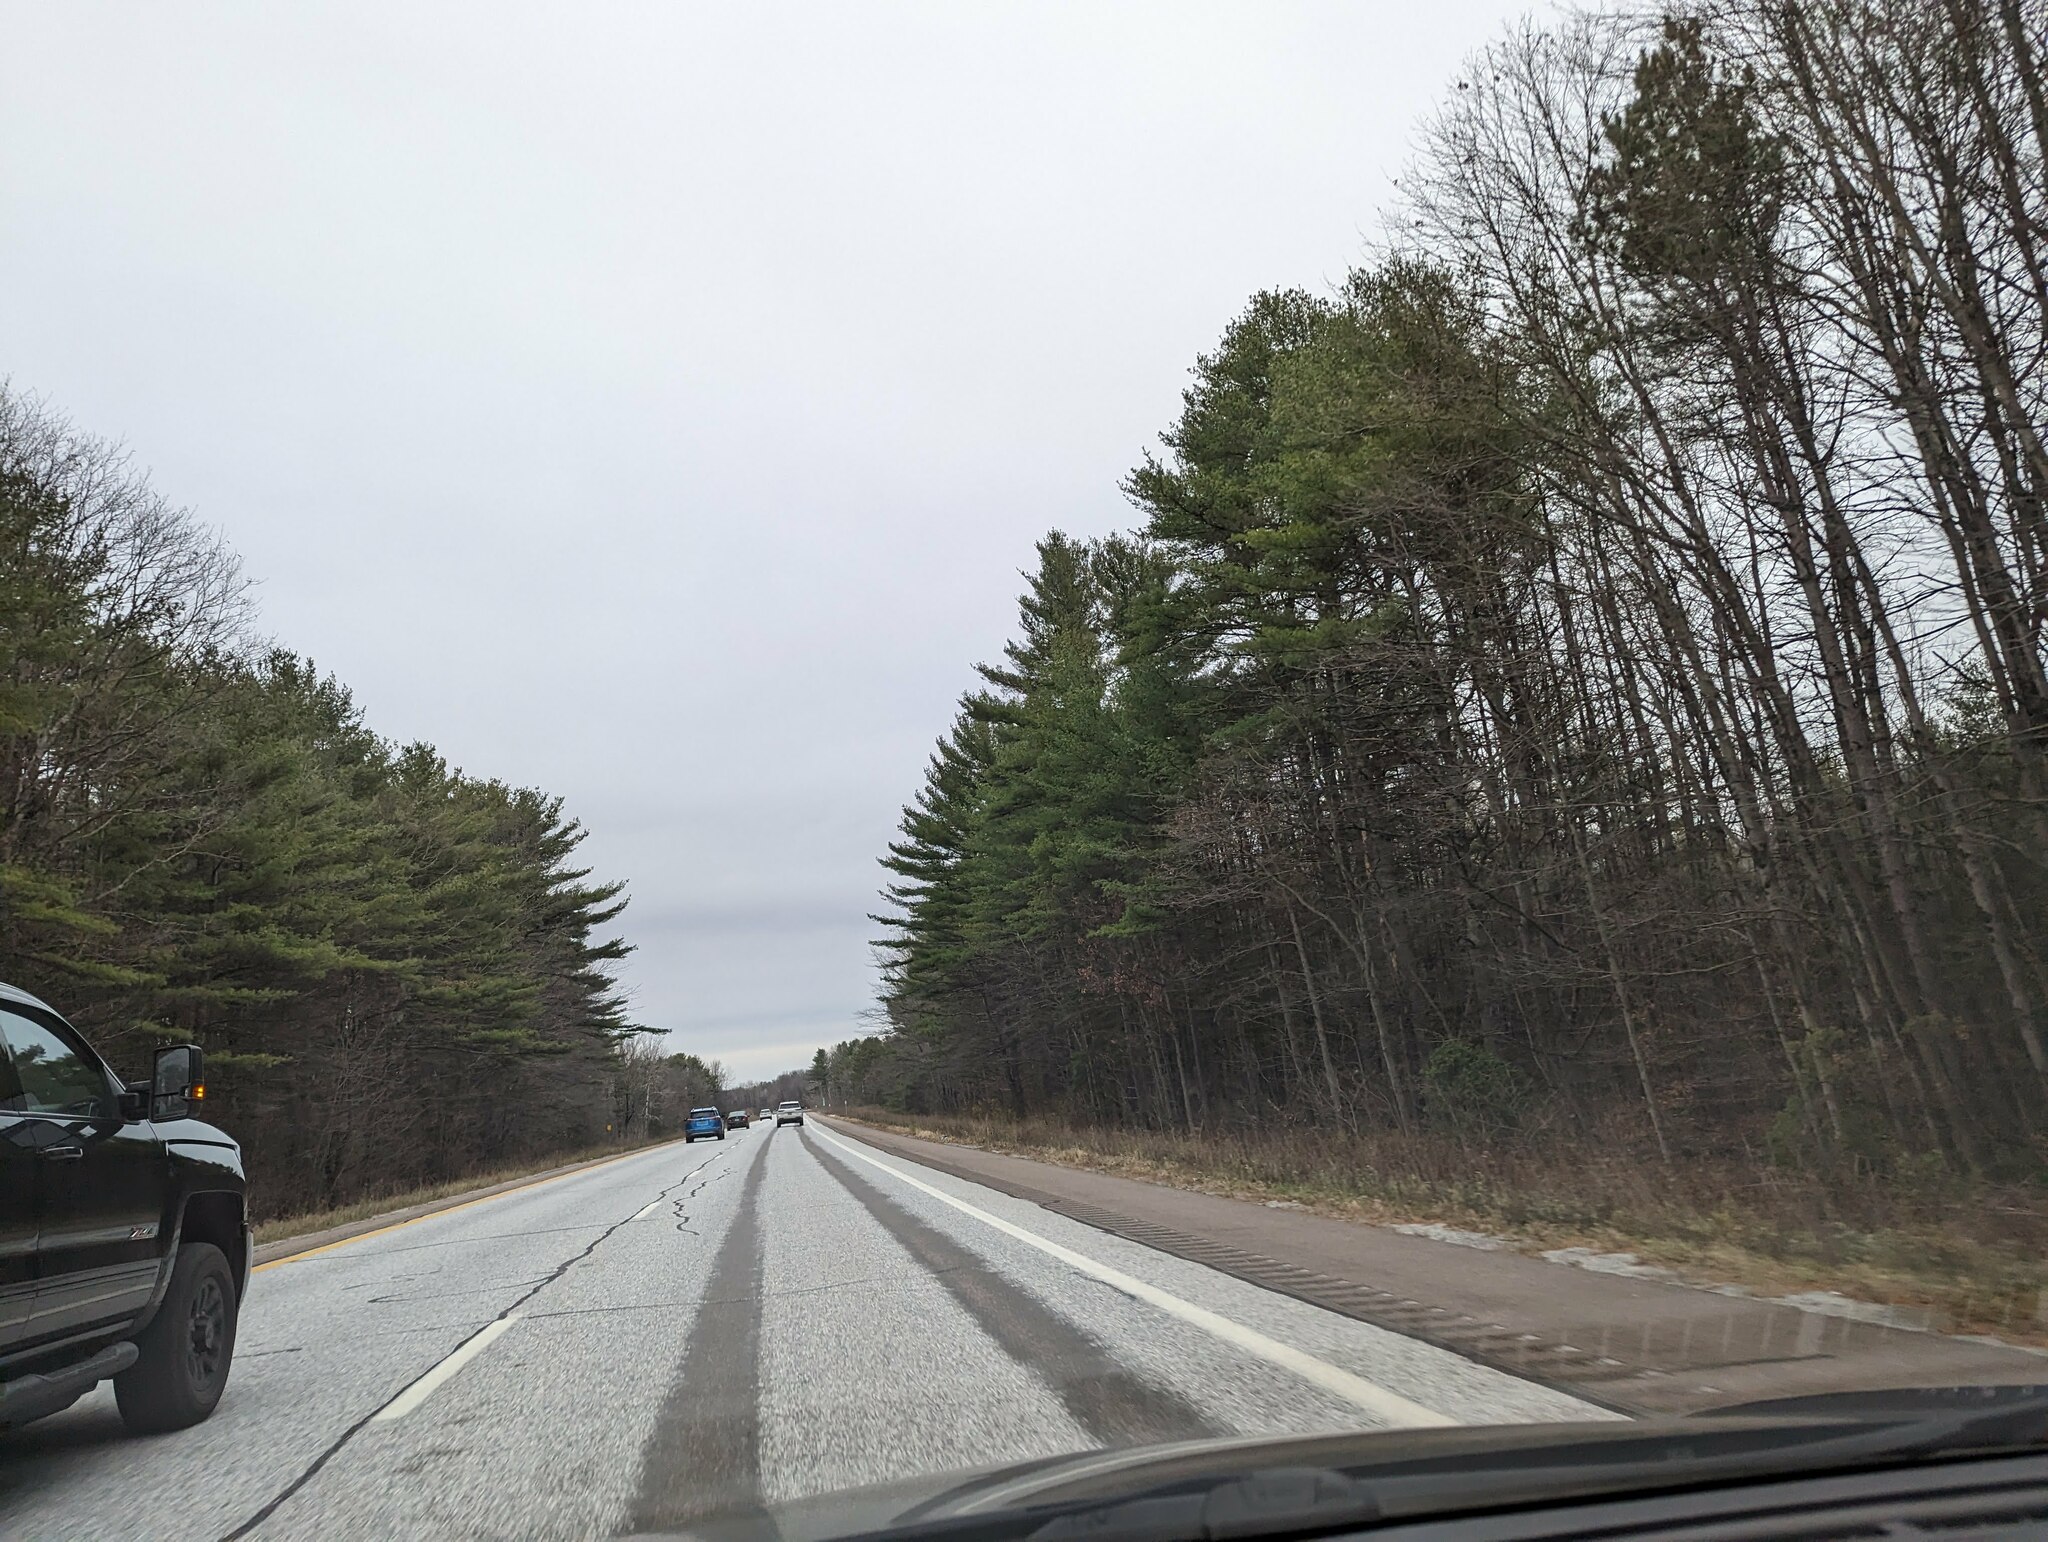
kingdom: Plantae
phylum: Tracheophyta
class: Pinopsida
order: Pinales
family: Pinaceae
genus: Pinus
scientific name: Pinus strobus
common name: Weymouth pine
